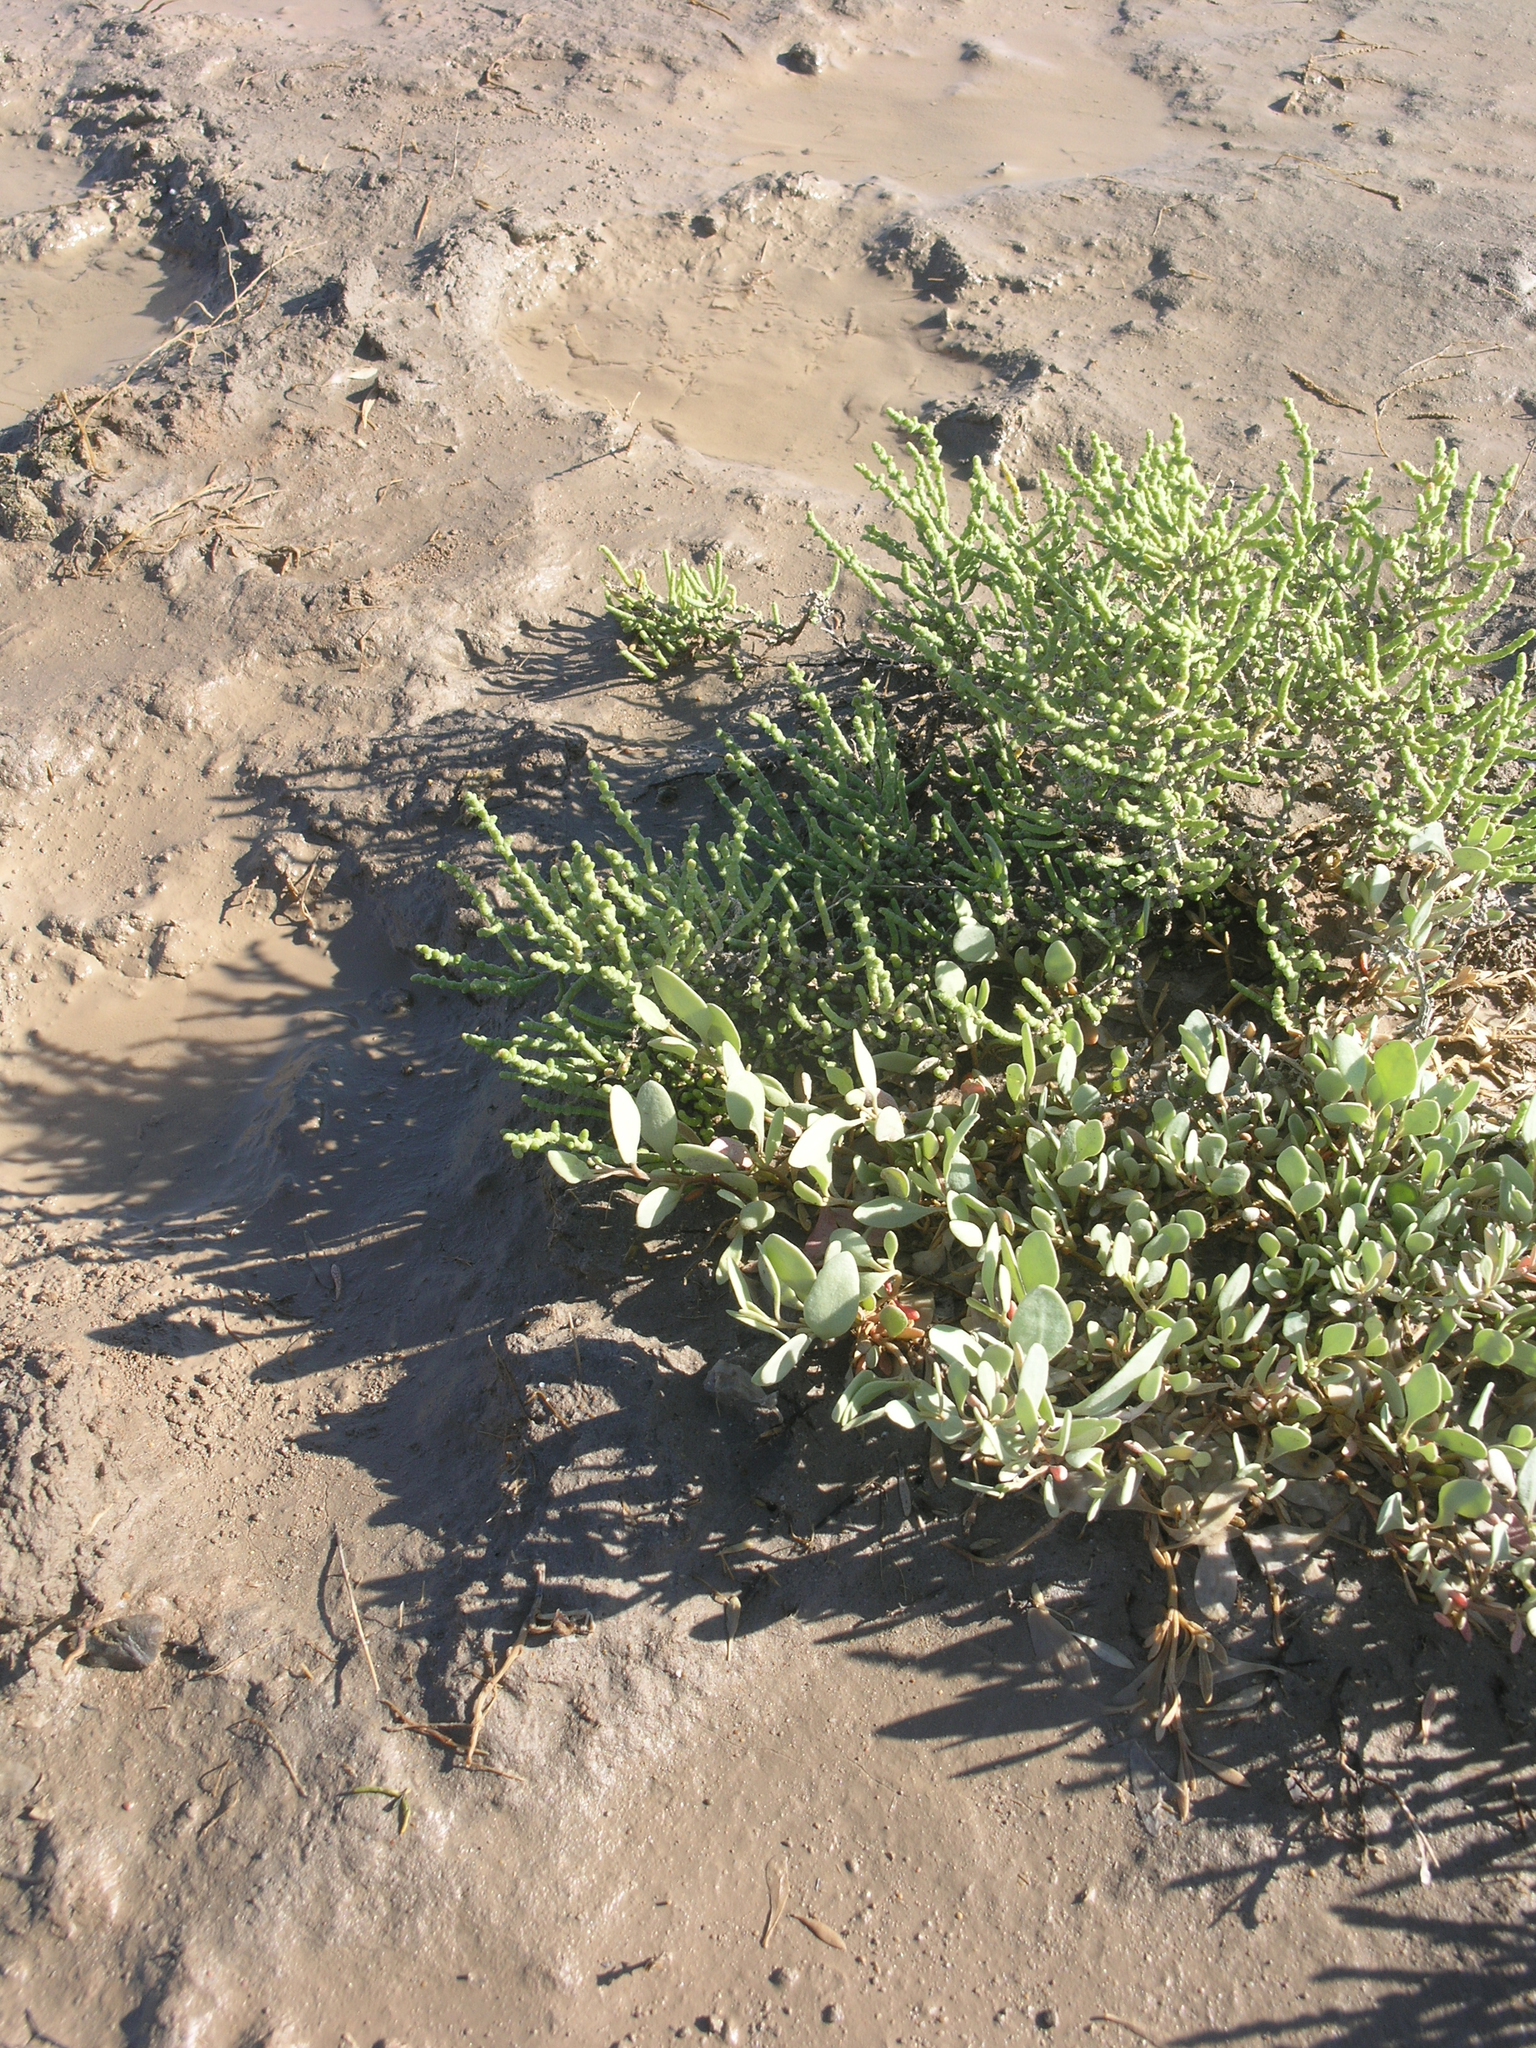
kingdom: Plantae
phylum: Tracheophyta
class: Magnoliopsida
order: Caryophyllales
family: Amaranthaceae
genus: Halimione
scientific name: Halimione verrucifera
